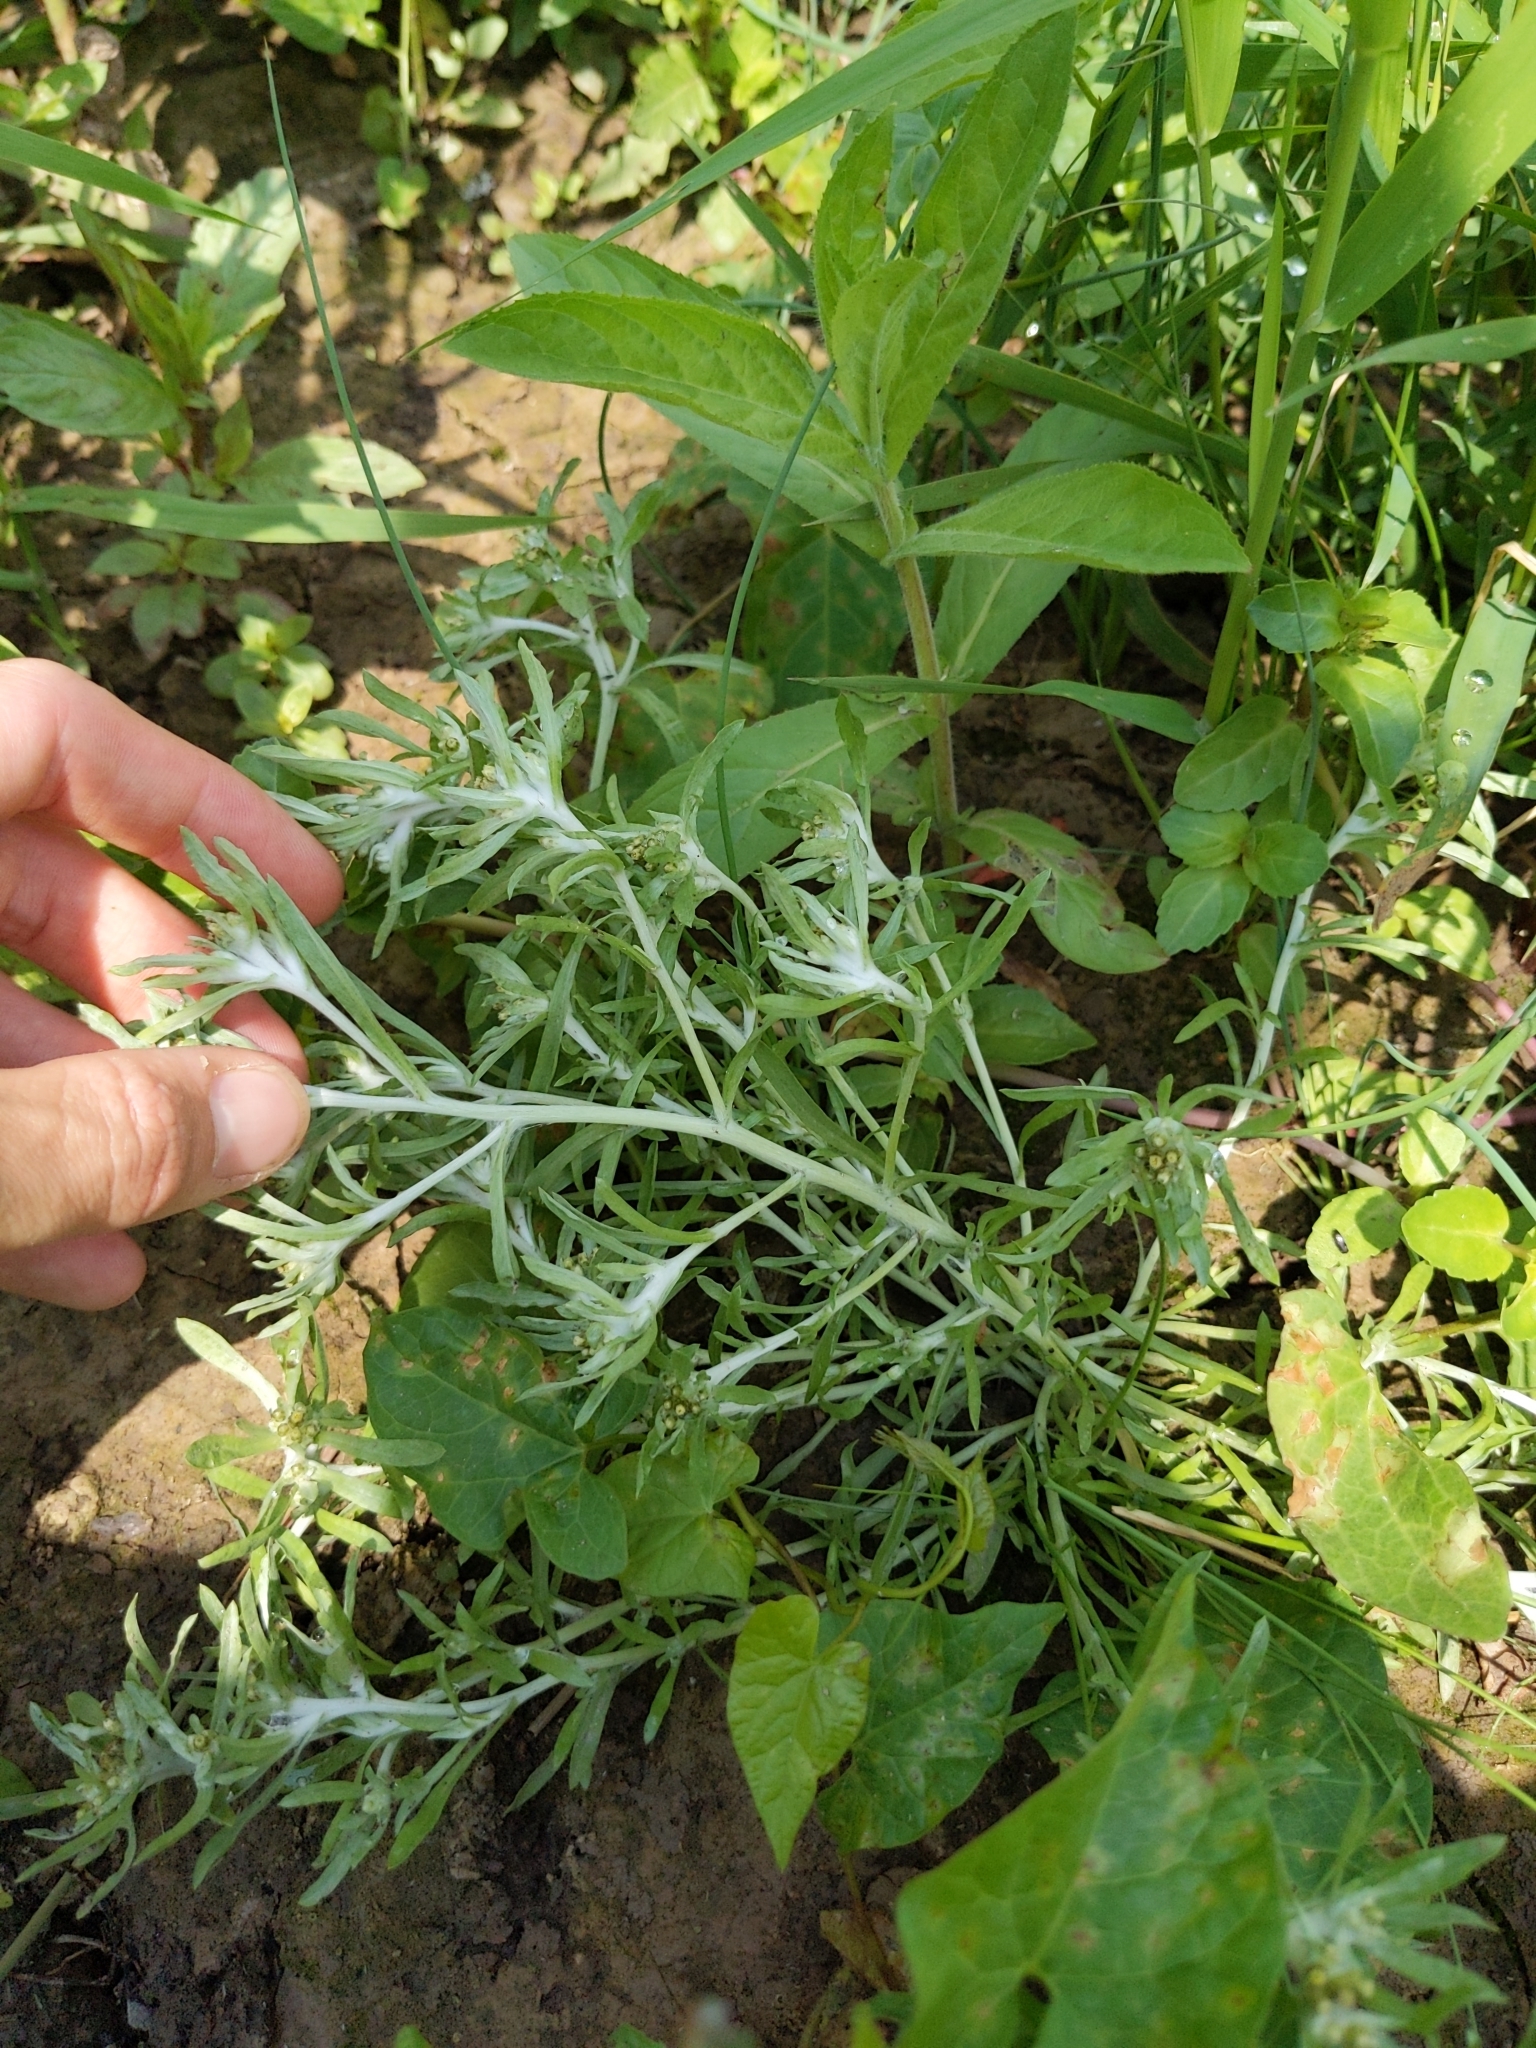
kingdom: Plantae
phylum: Tracheophyta
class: Magnoliopsida
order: Asterales
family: Asteraceae
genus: Gnaphalium
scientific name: Gnaphalium uliginosum
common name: Marsh cudweed
